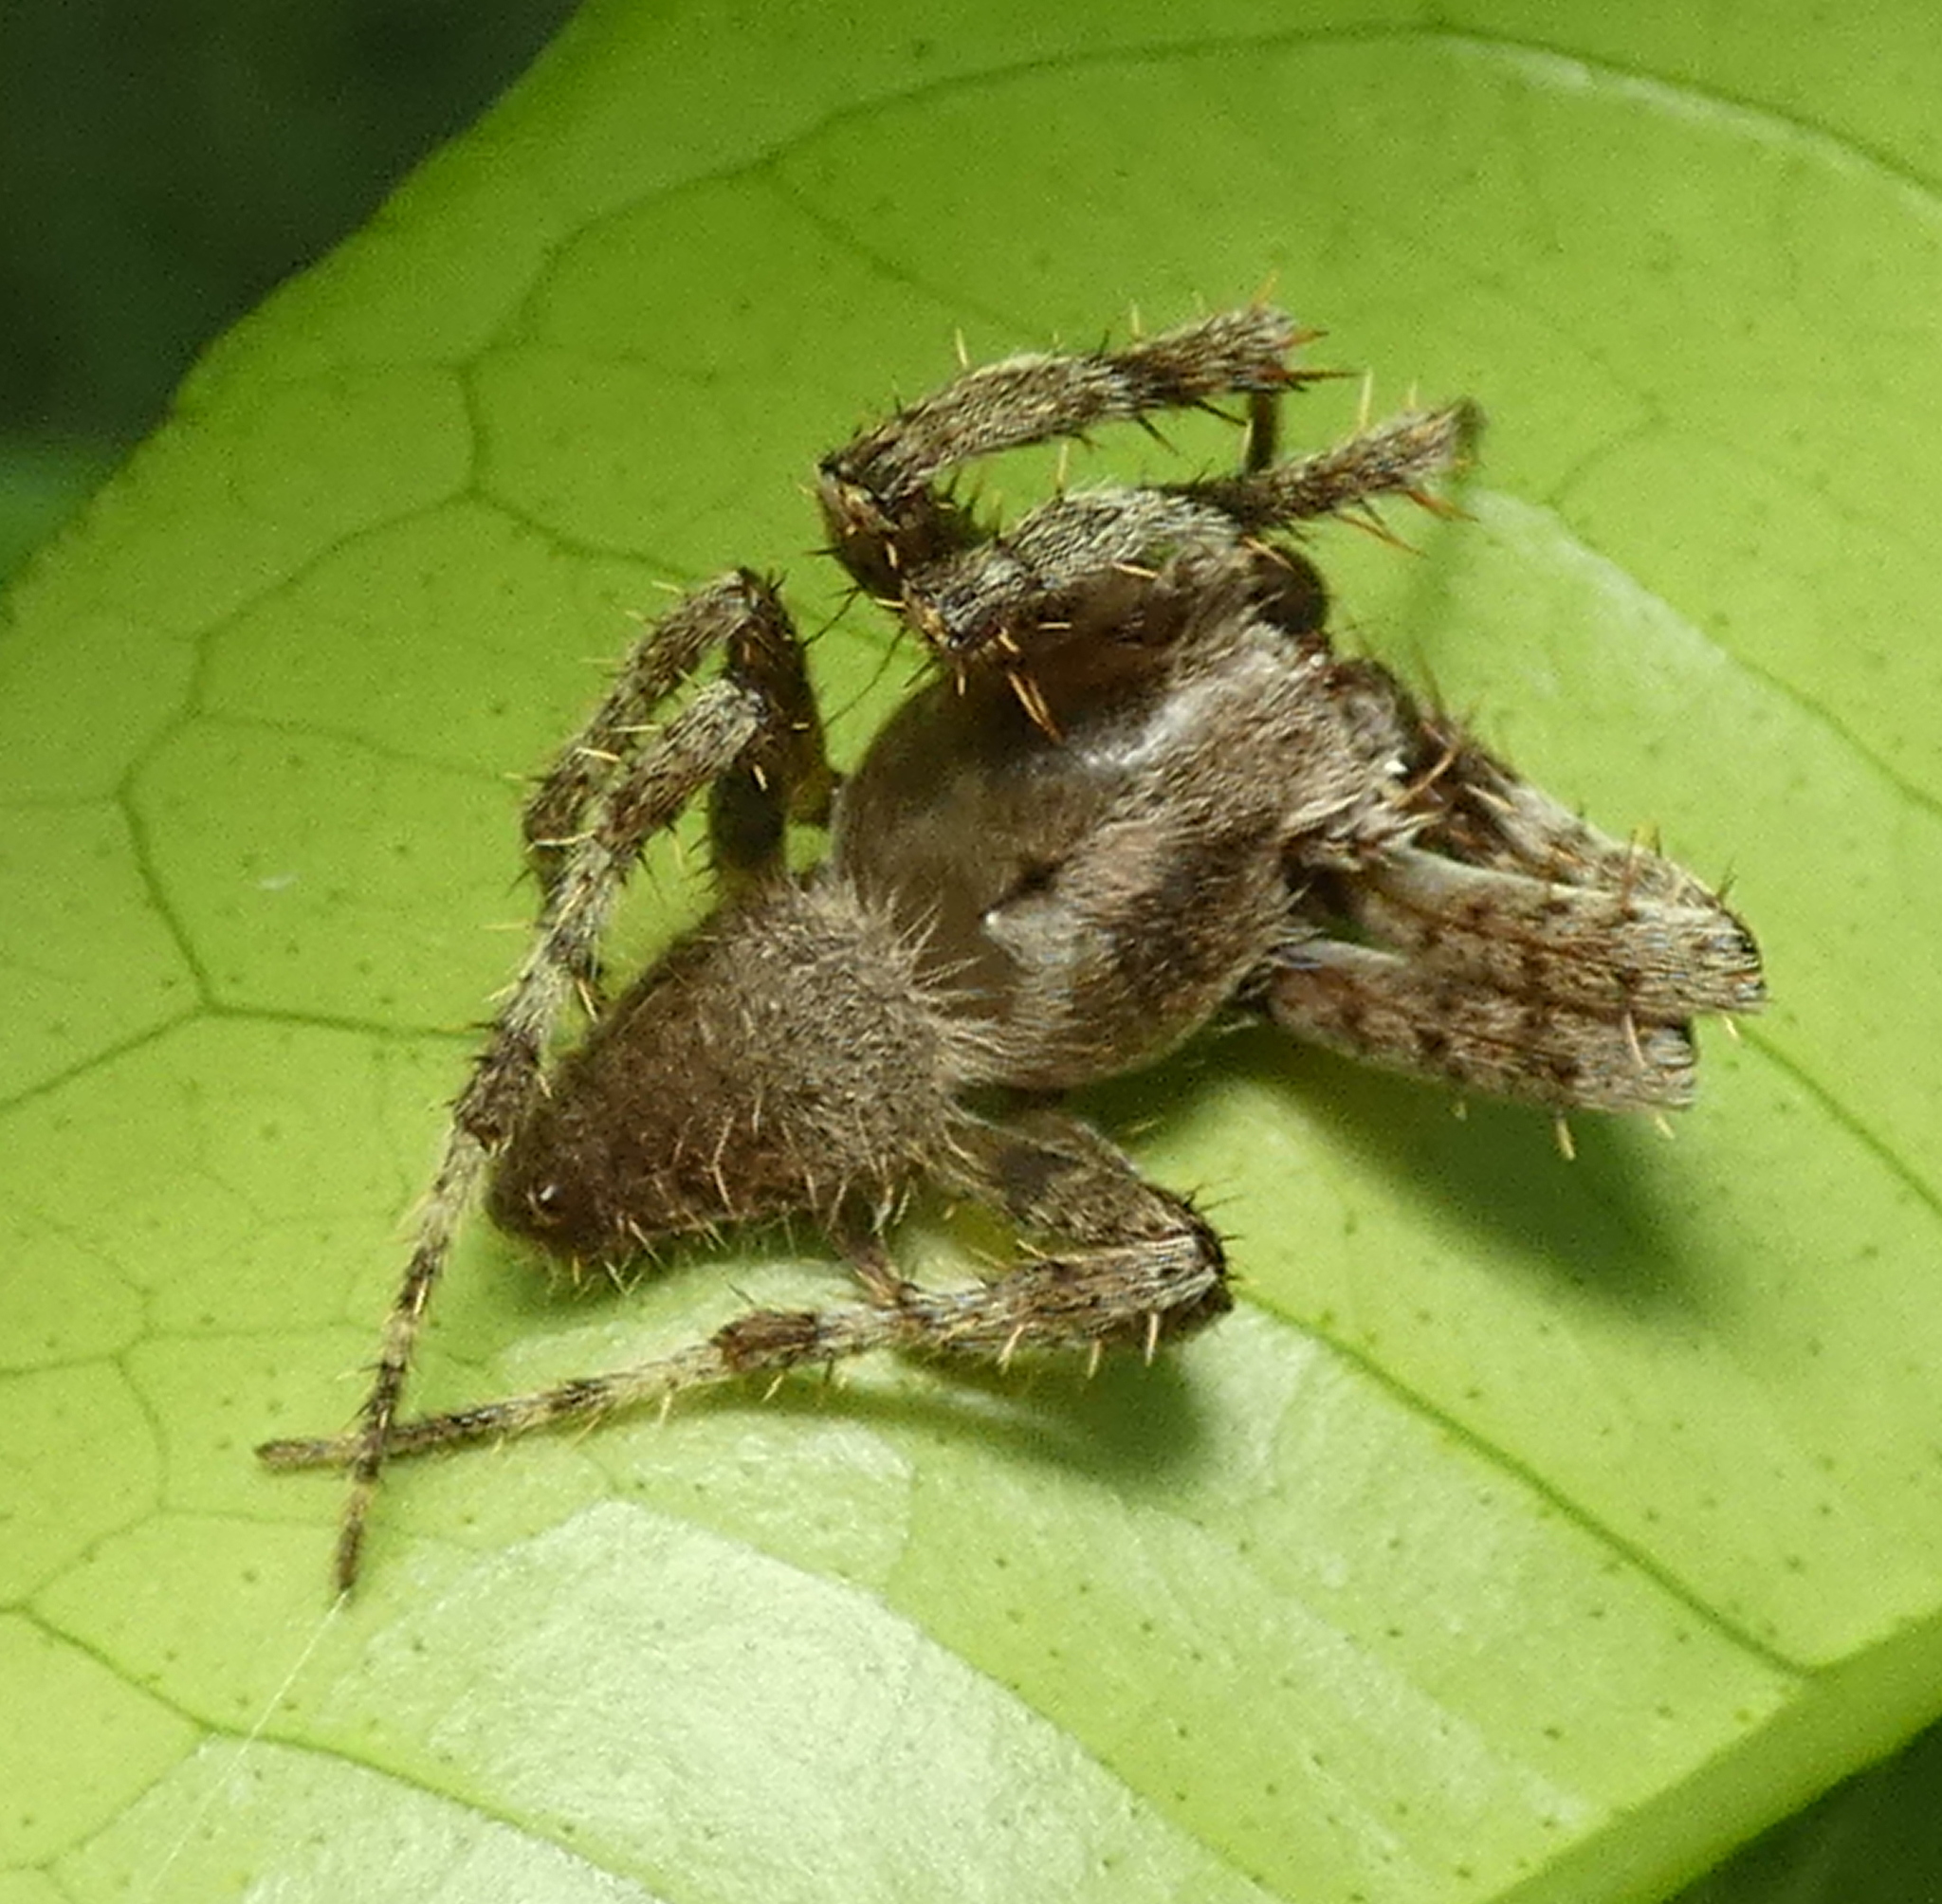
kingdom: Animalia
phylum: Arthropoda
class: Arachnida
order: Araneae
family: Araneidae
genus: Eriophora
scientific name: Eriophora edax
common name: Orb weavers
